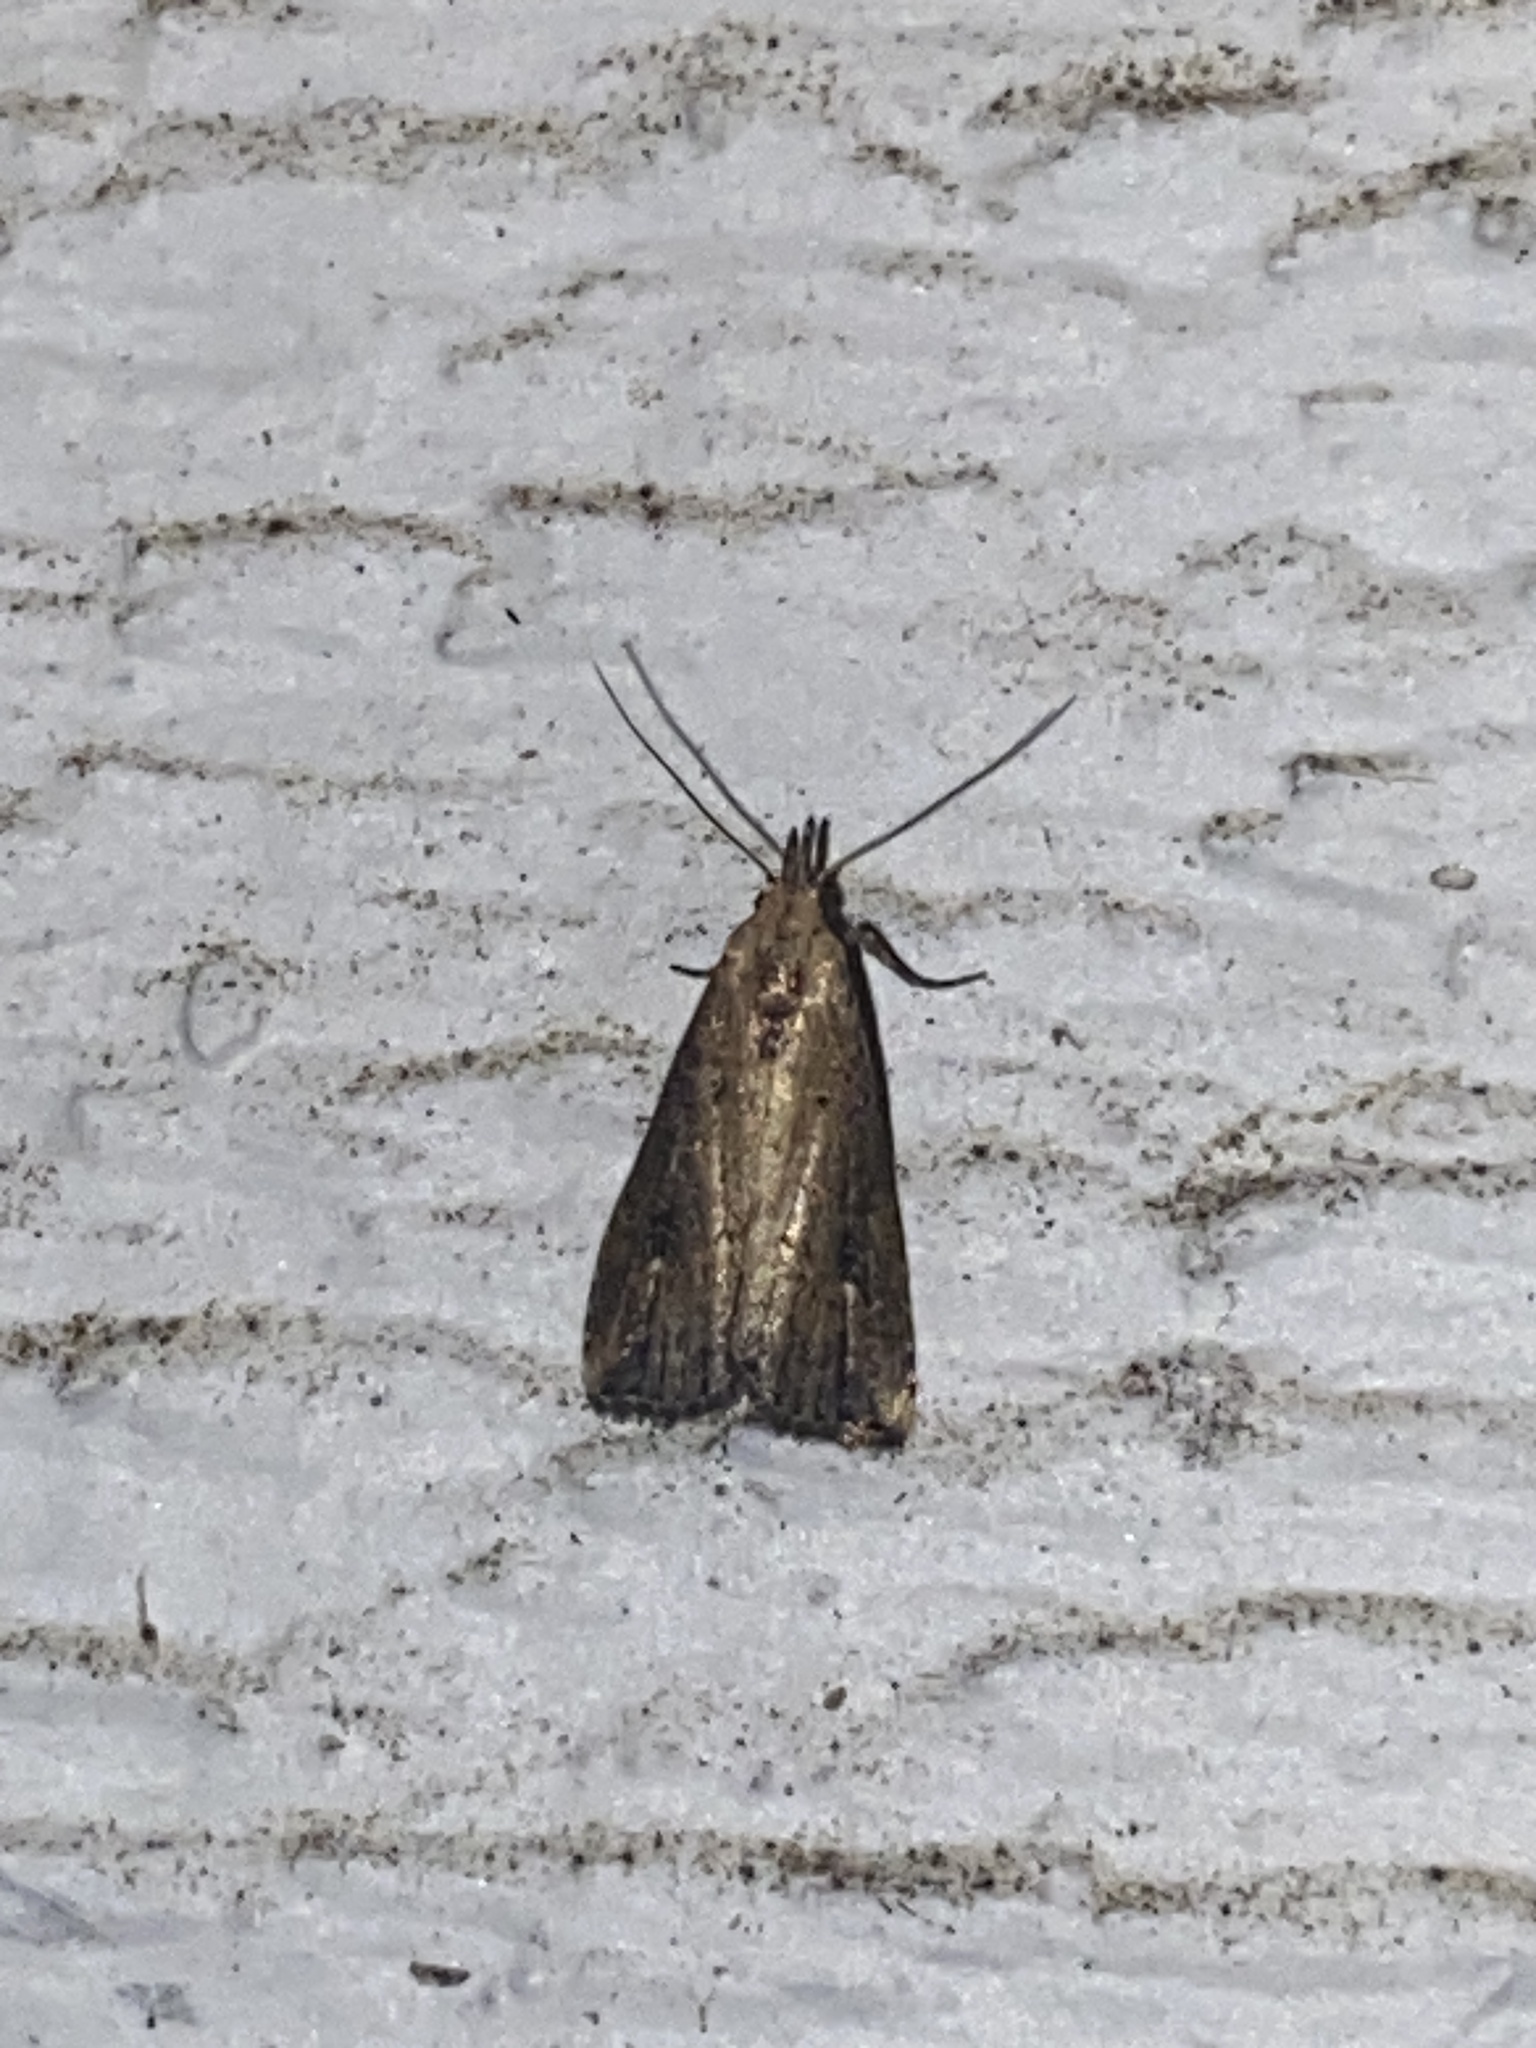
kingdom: Animalia
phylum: Arthropoda
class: Insecta
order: Lepidoptera
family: Erebidae
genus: Schrankia
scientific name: Schrankia
